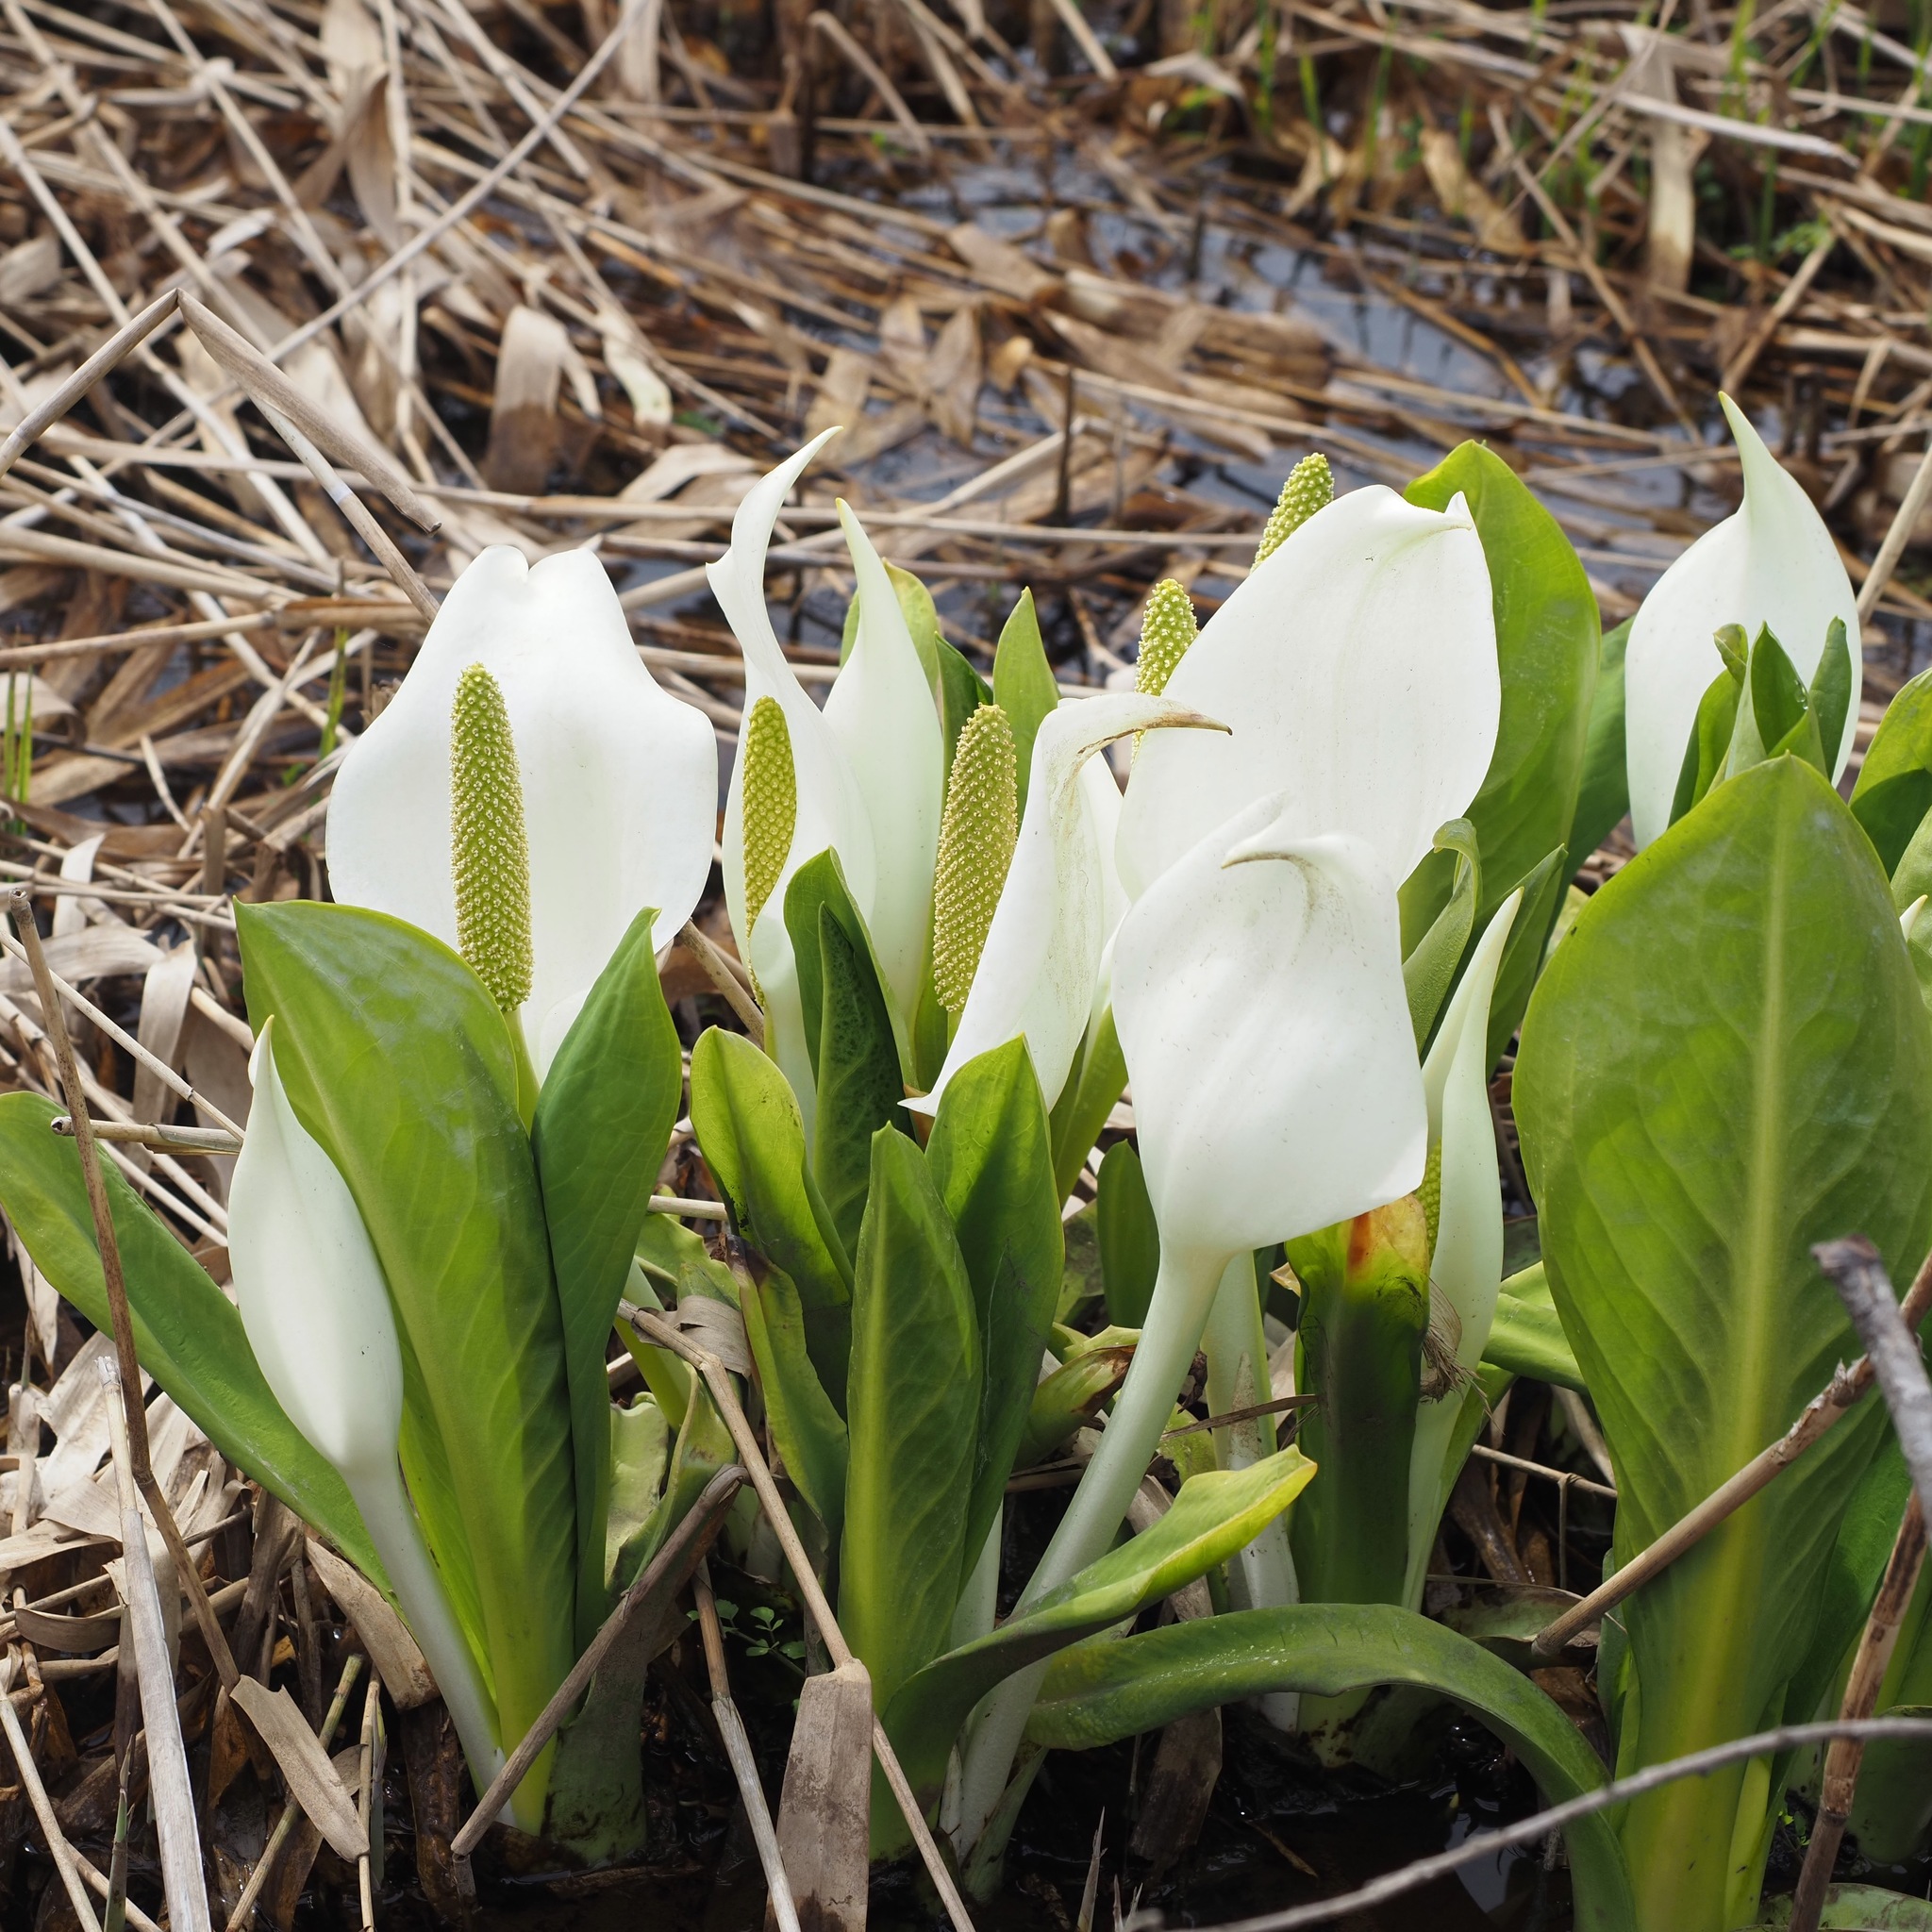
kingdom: Plantae
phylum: Tracheophyta
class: Liliopsida
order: Alismatales
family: Araceae
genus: Lysichiton
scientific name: Lysichiton camtschatcensis
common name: Asian skunk-cabbage
